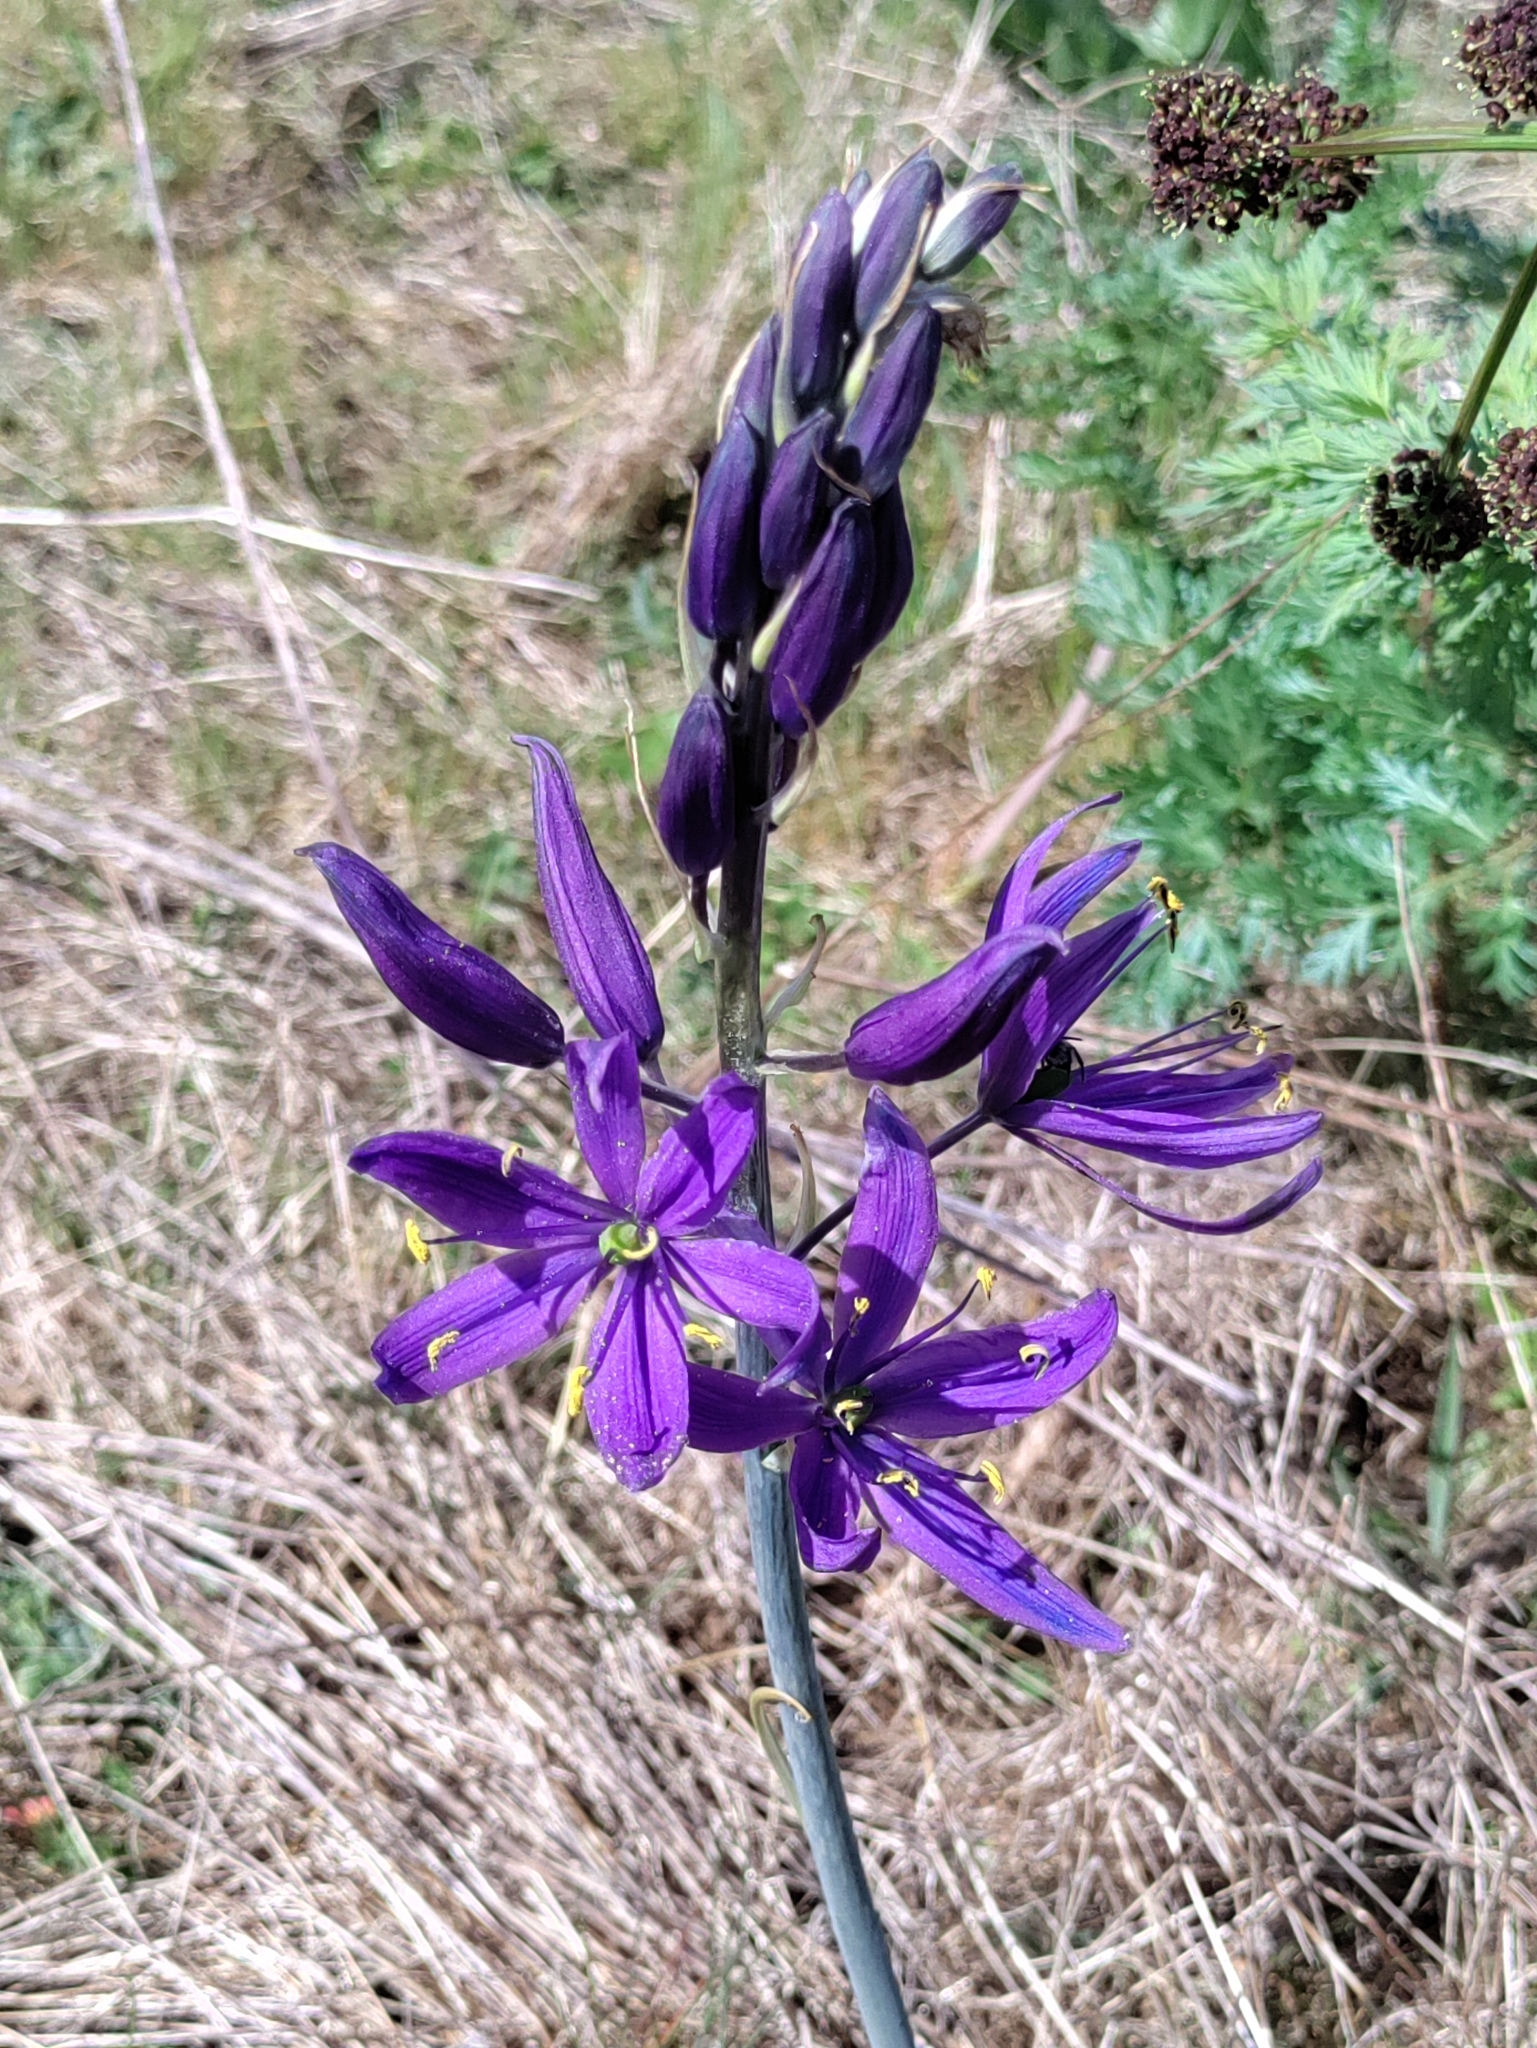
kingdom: Plantae
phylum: Tracheophyta
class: Liliopsida
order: Asparagales
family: Asparagaceae
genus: Camassia
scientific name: Camassia leichtlinii
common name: Leichtlin's camas
